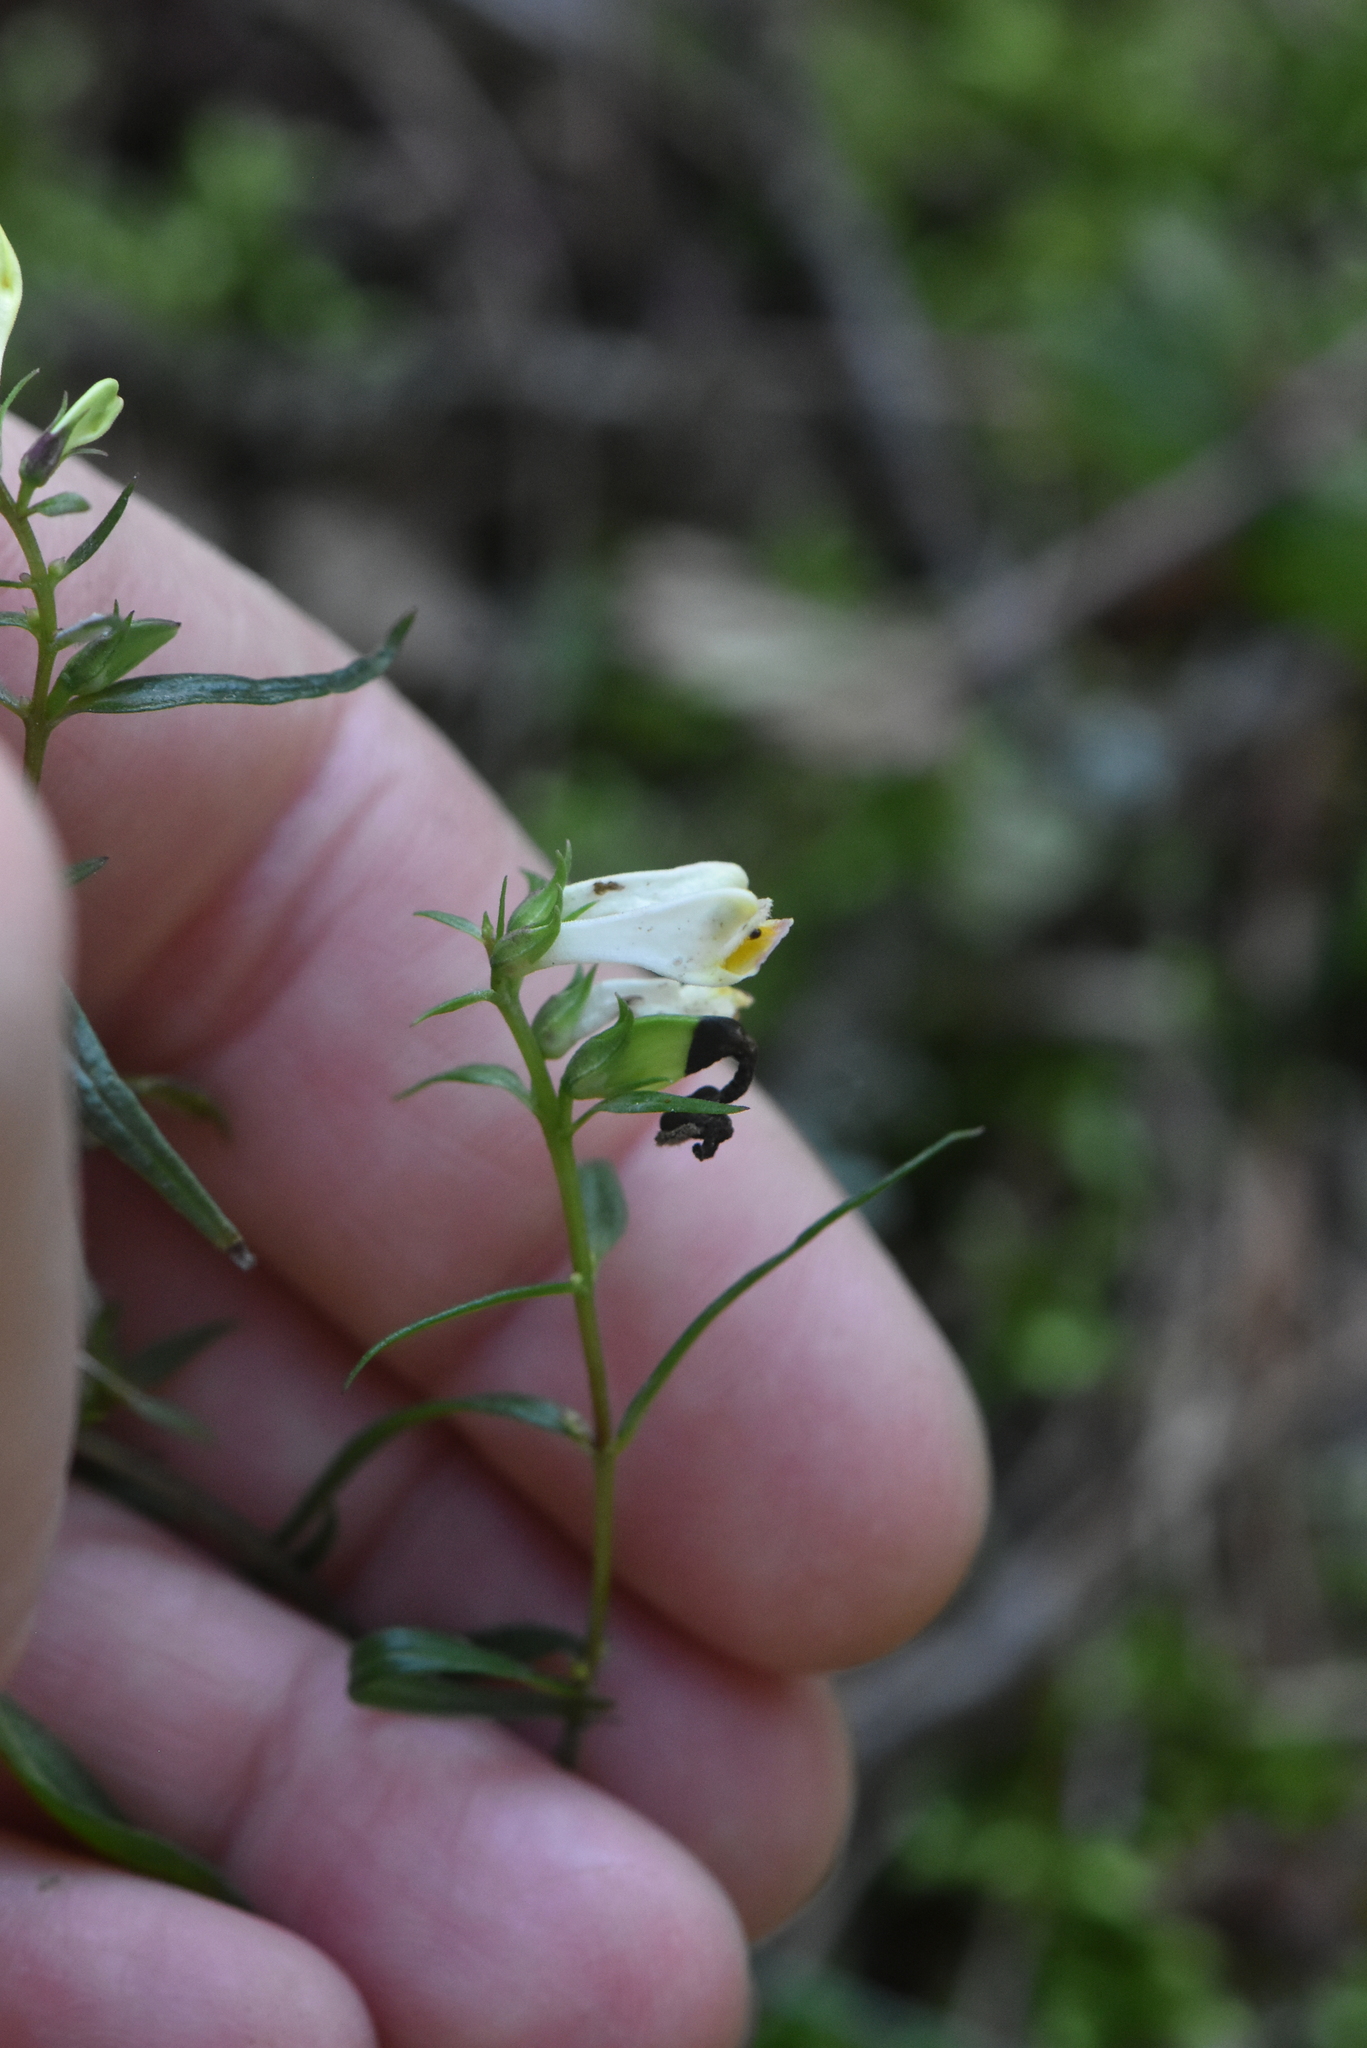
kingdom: Plantae
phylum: Tracheophyta
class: Magnoliopsida
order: Lamiales
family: Orobanchaceae
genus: Melampyrum
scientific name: Melampyrum pratense
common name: Common cow-wheat
